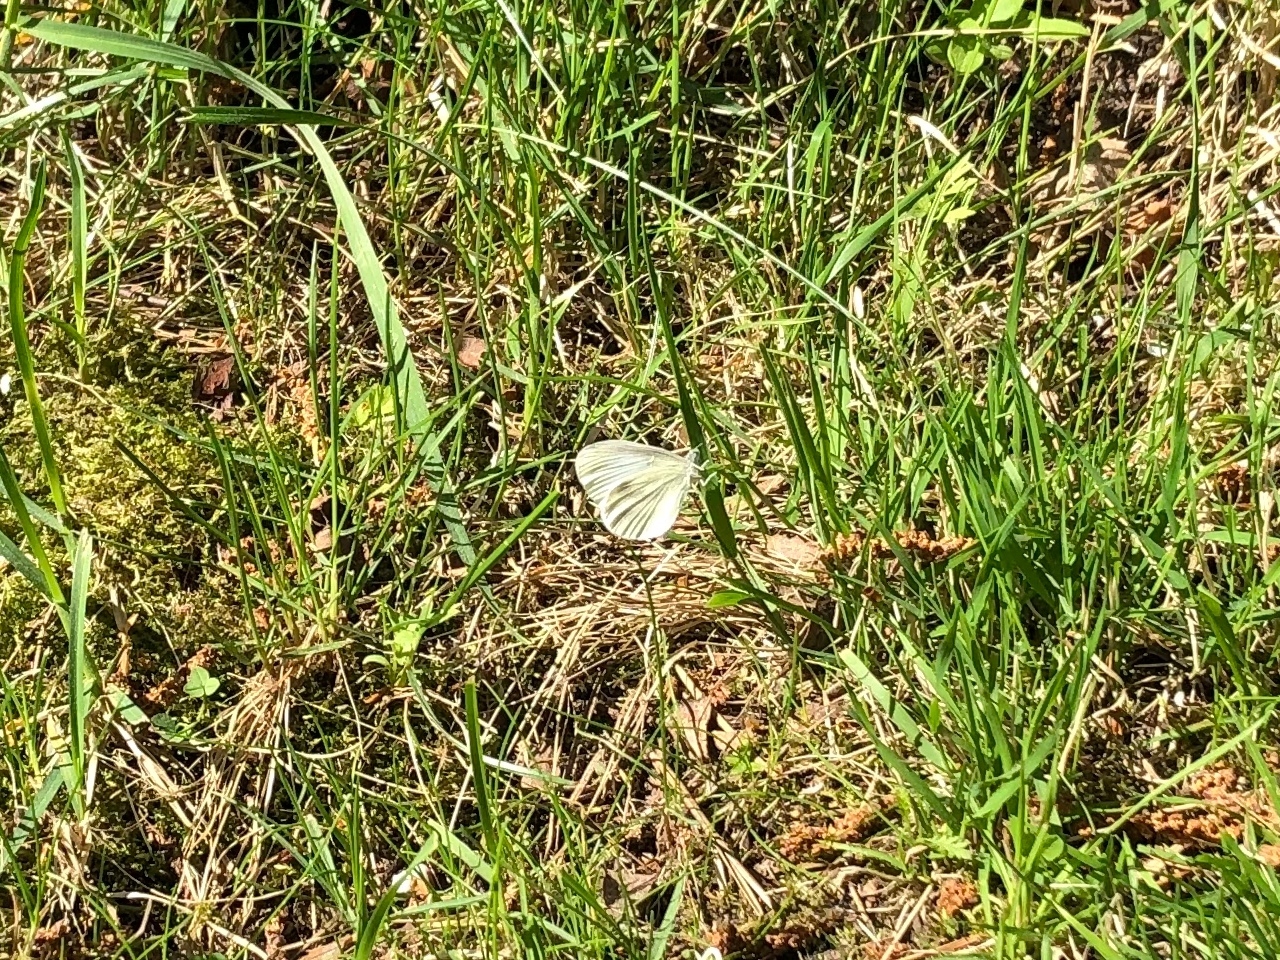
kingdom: Animalia
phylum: Arthropoda
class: Insecta
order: Lepidoptera
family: Pieridae
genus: Leptidea
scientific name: Leptidea
